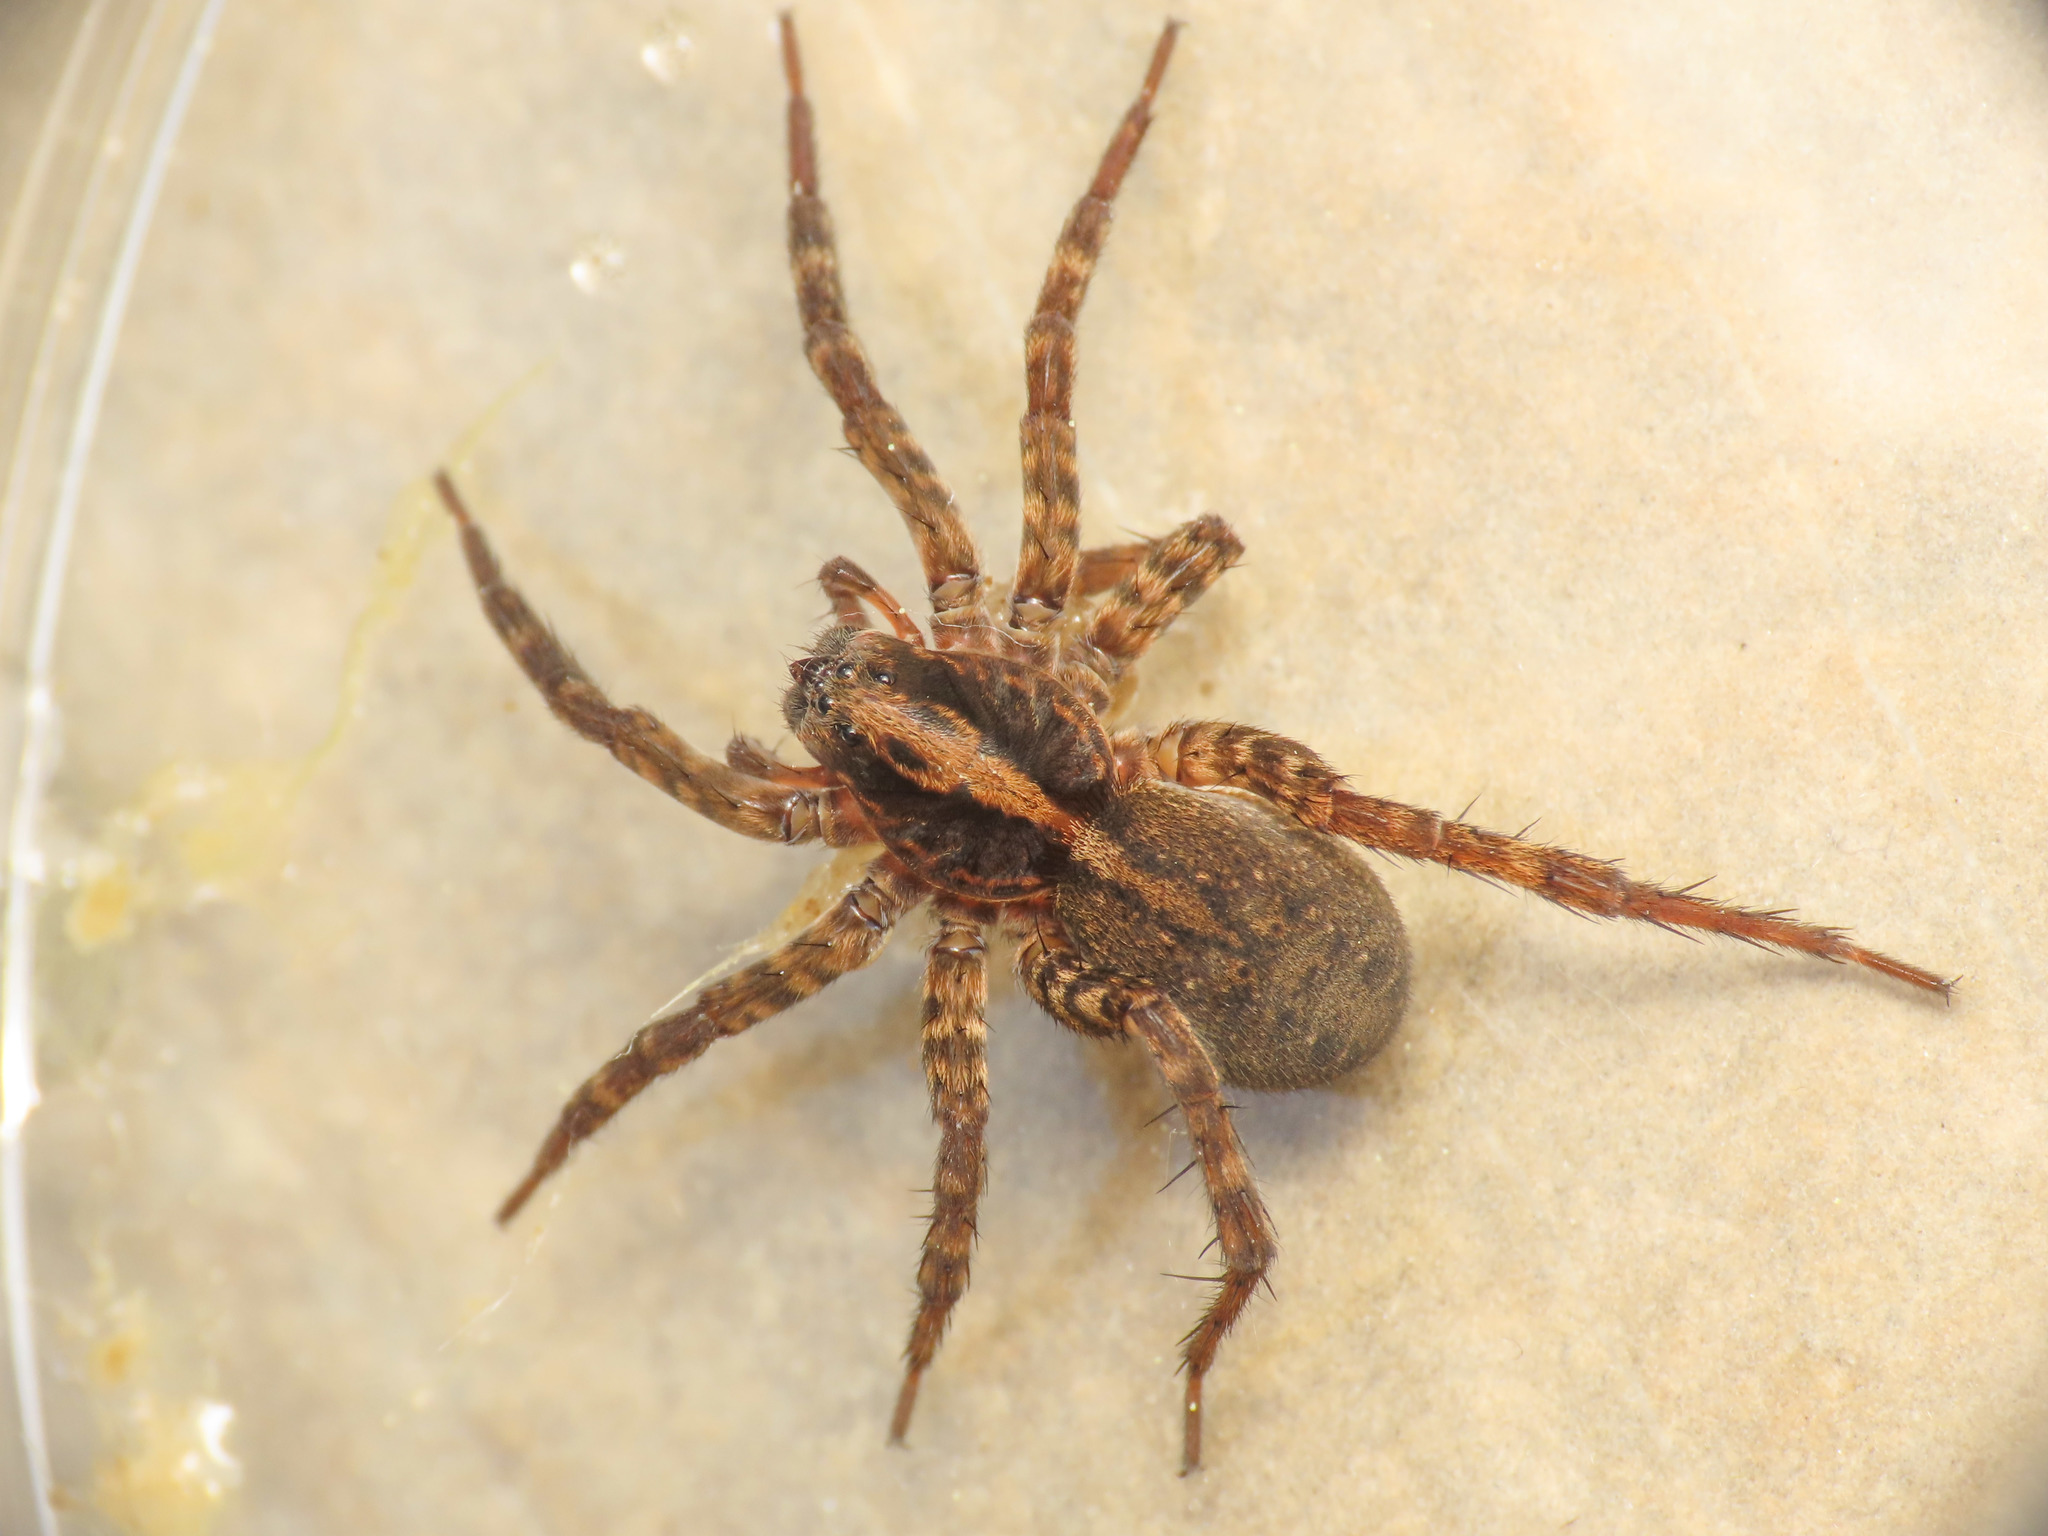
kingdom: Animalia
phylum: Arthropoda
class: Arachnida
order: Araneae
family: Lycosidae
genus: Trochosa
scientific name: Trochosa hispanica
